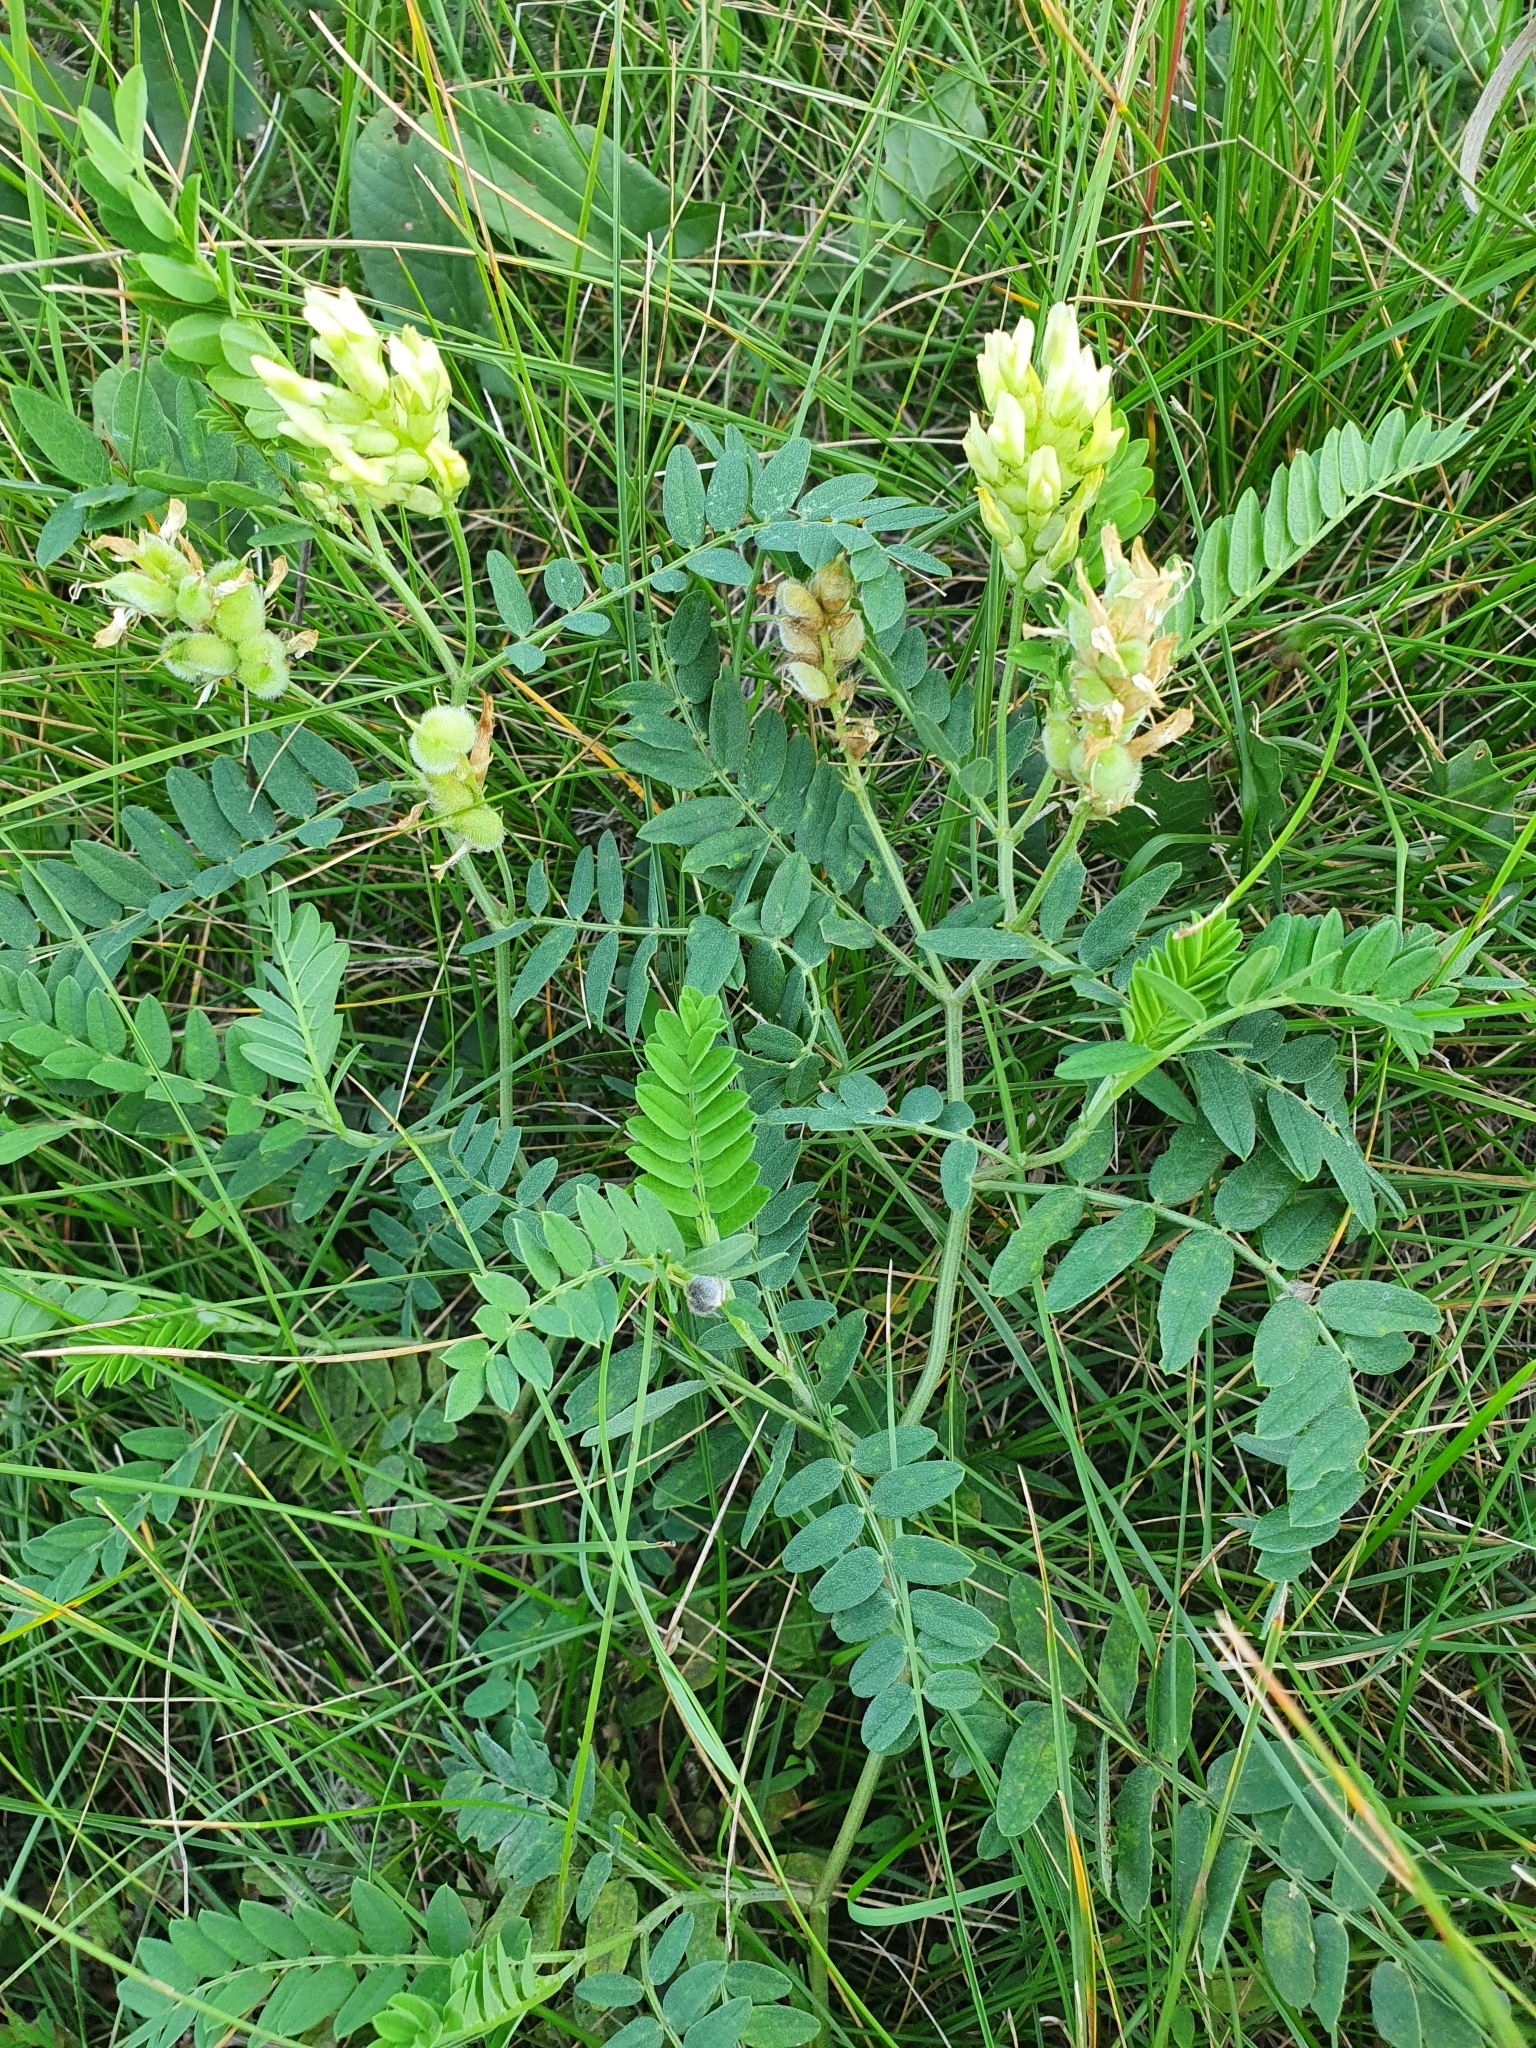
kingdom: Plantae
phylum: Tracheophyta
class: Magnoliopsida
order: Fabales
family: Fabaceae
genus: Astragalus
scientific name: Astragalus cicer
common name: Chick-pea milk-vetch
